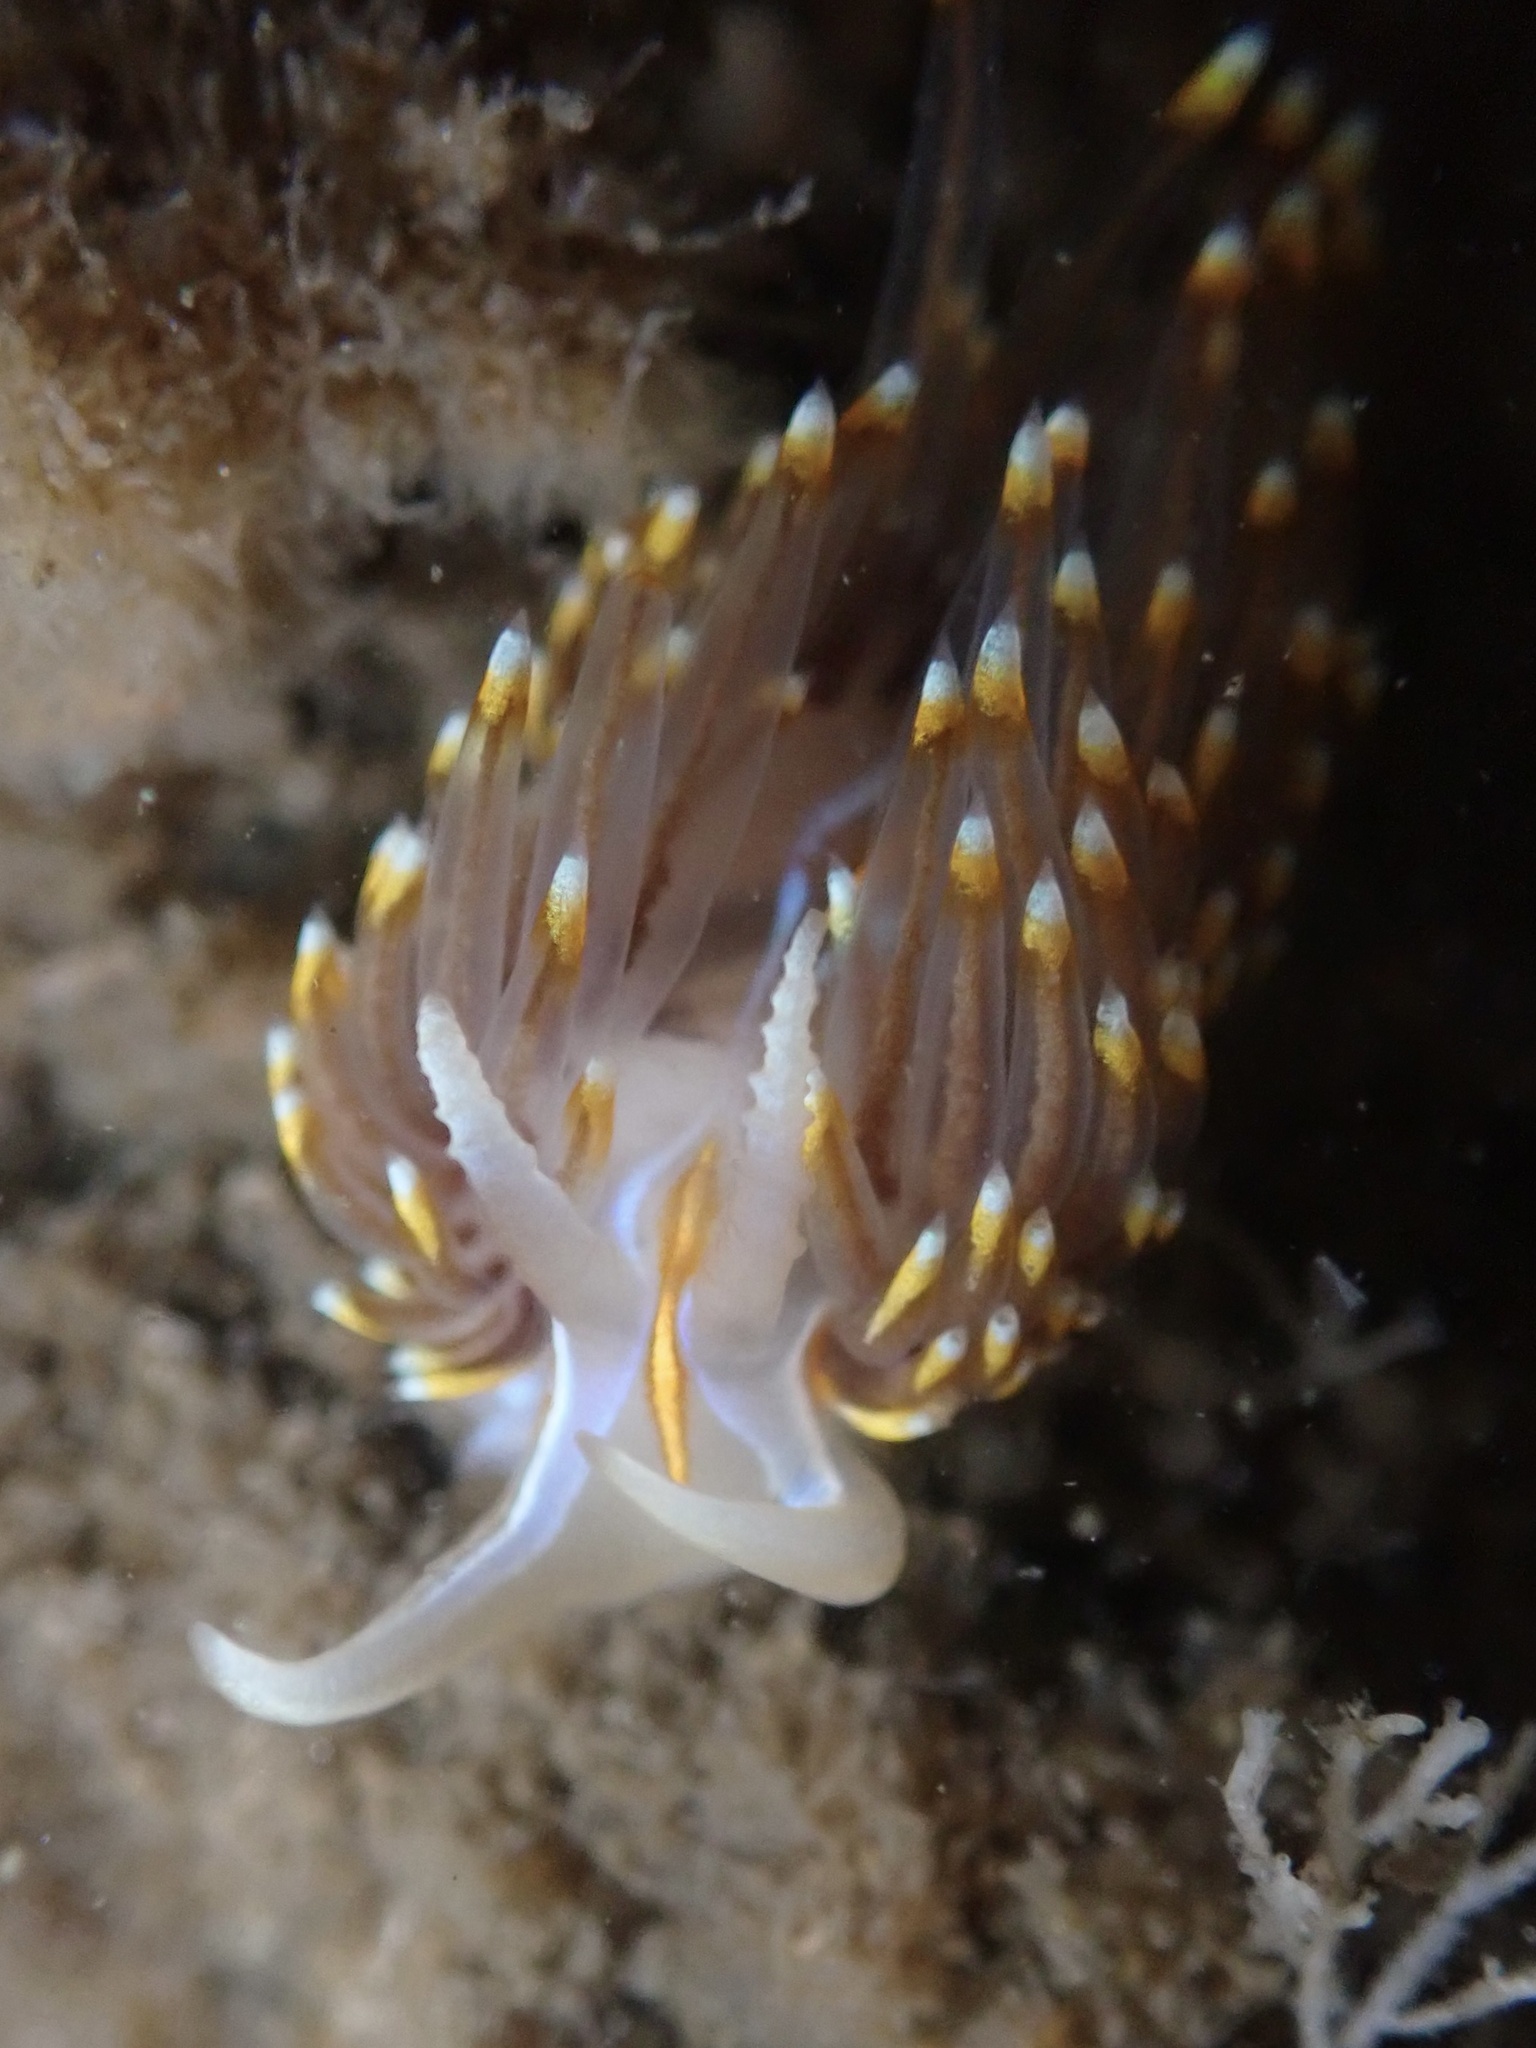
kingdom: Animalia
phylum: Mollusca
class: Gastropoda
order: Nudibranchia
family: Myrrhinidae
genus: Hermissenda
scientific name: Hermissenda opalescens
